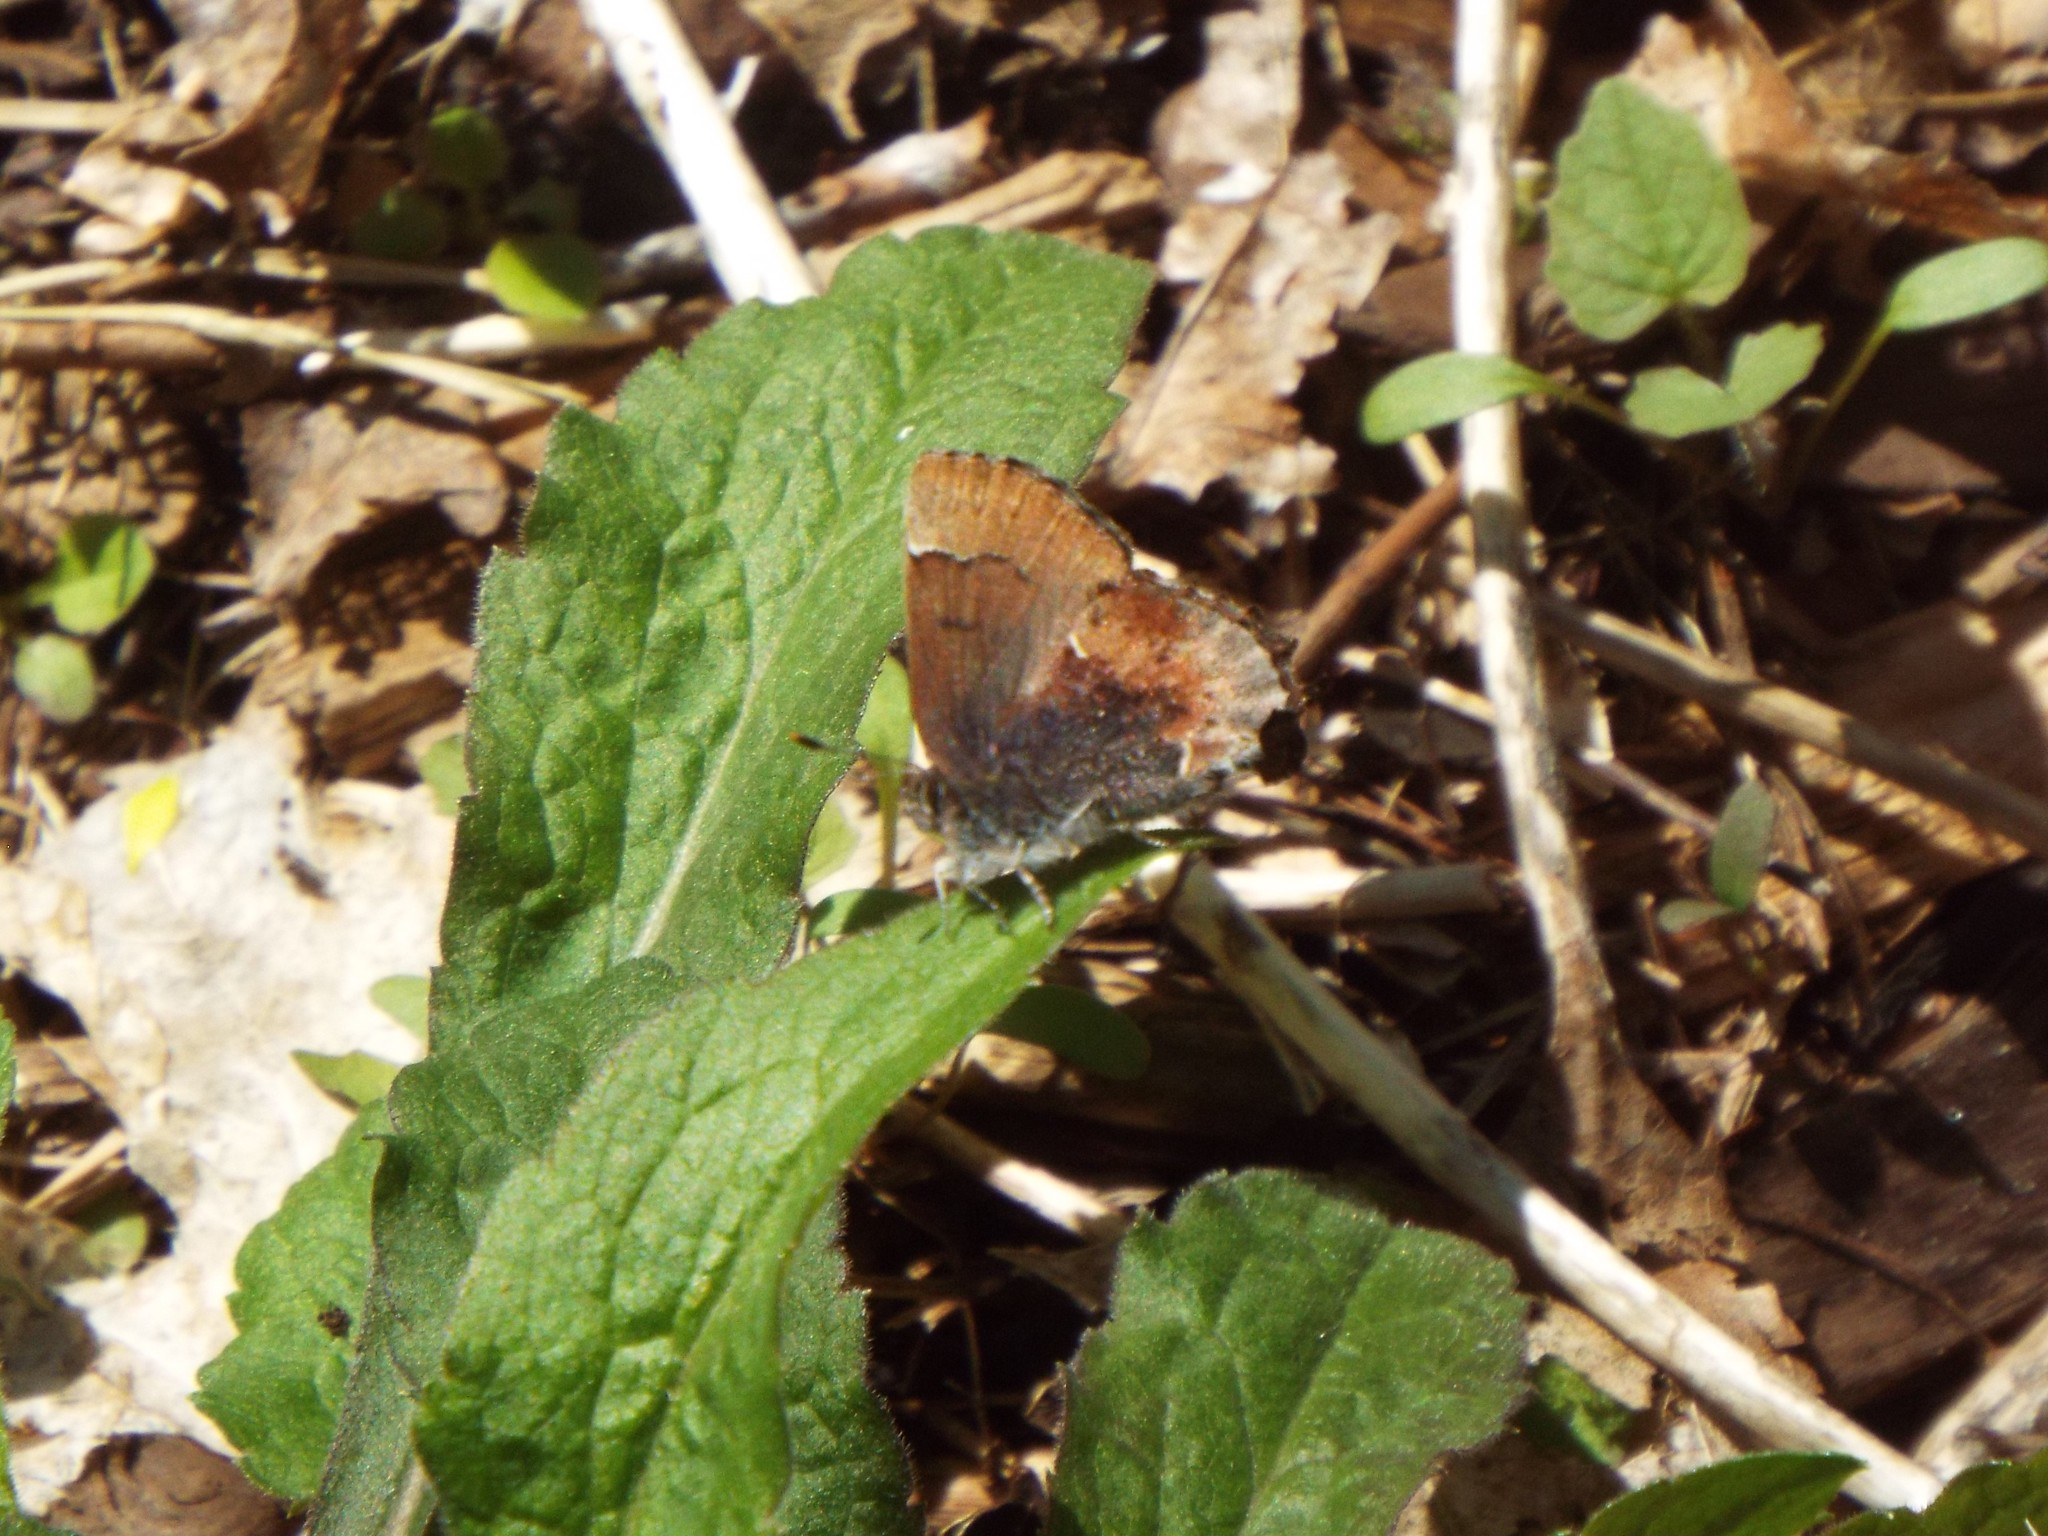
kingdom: Animalia
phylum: Arthropoda
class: Insecta
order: Lepidoptera
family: Lycaenidae
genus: Incisalia
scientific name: Incisalia henrici
